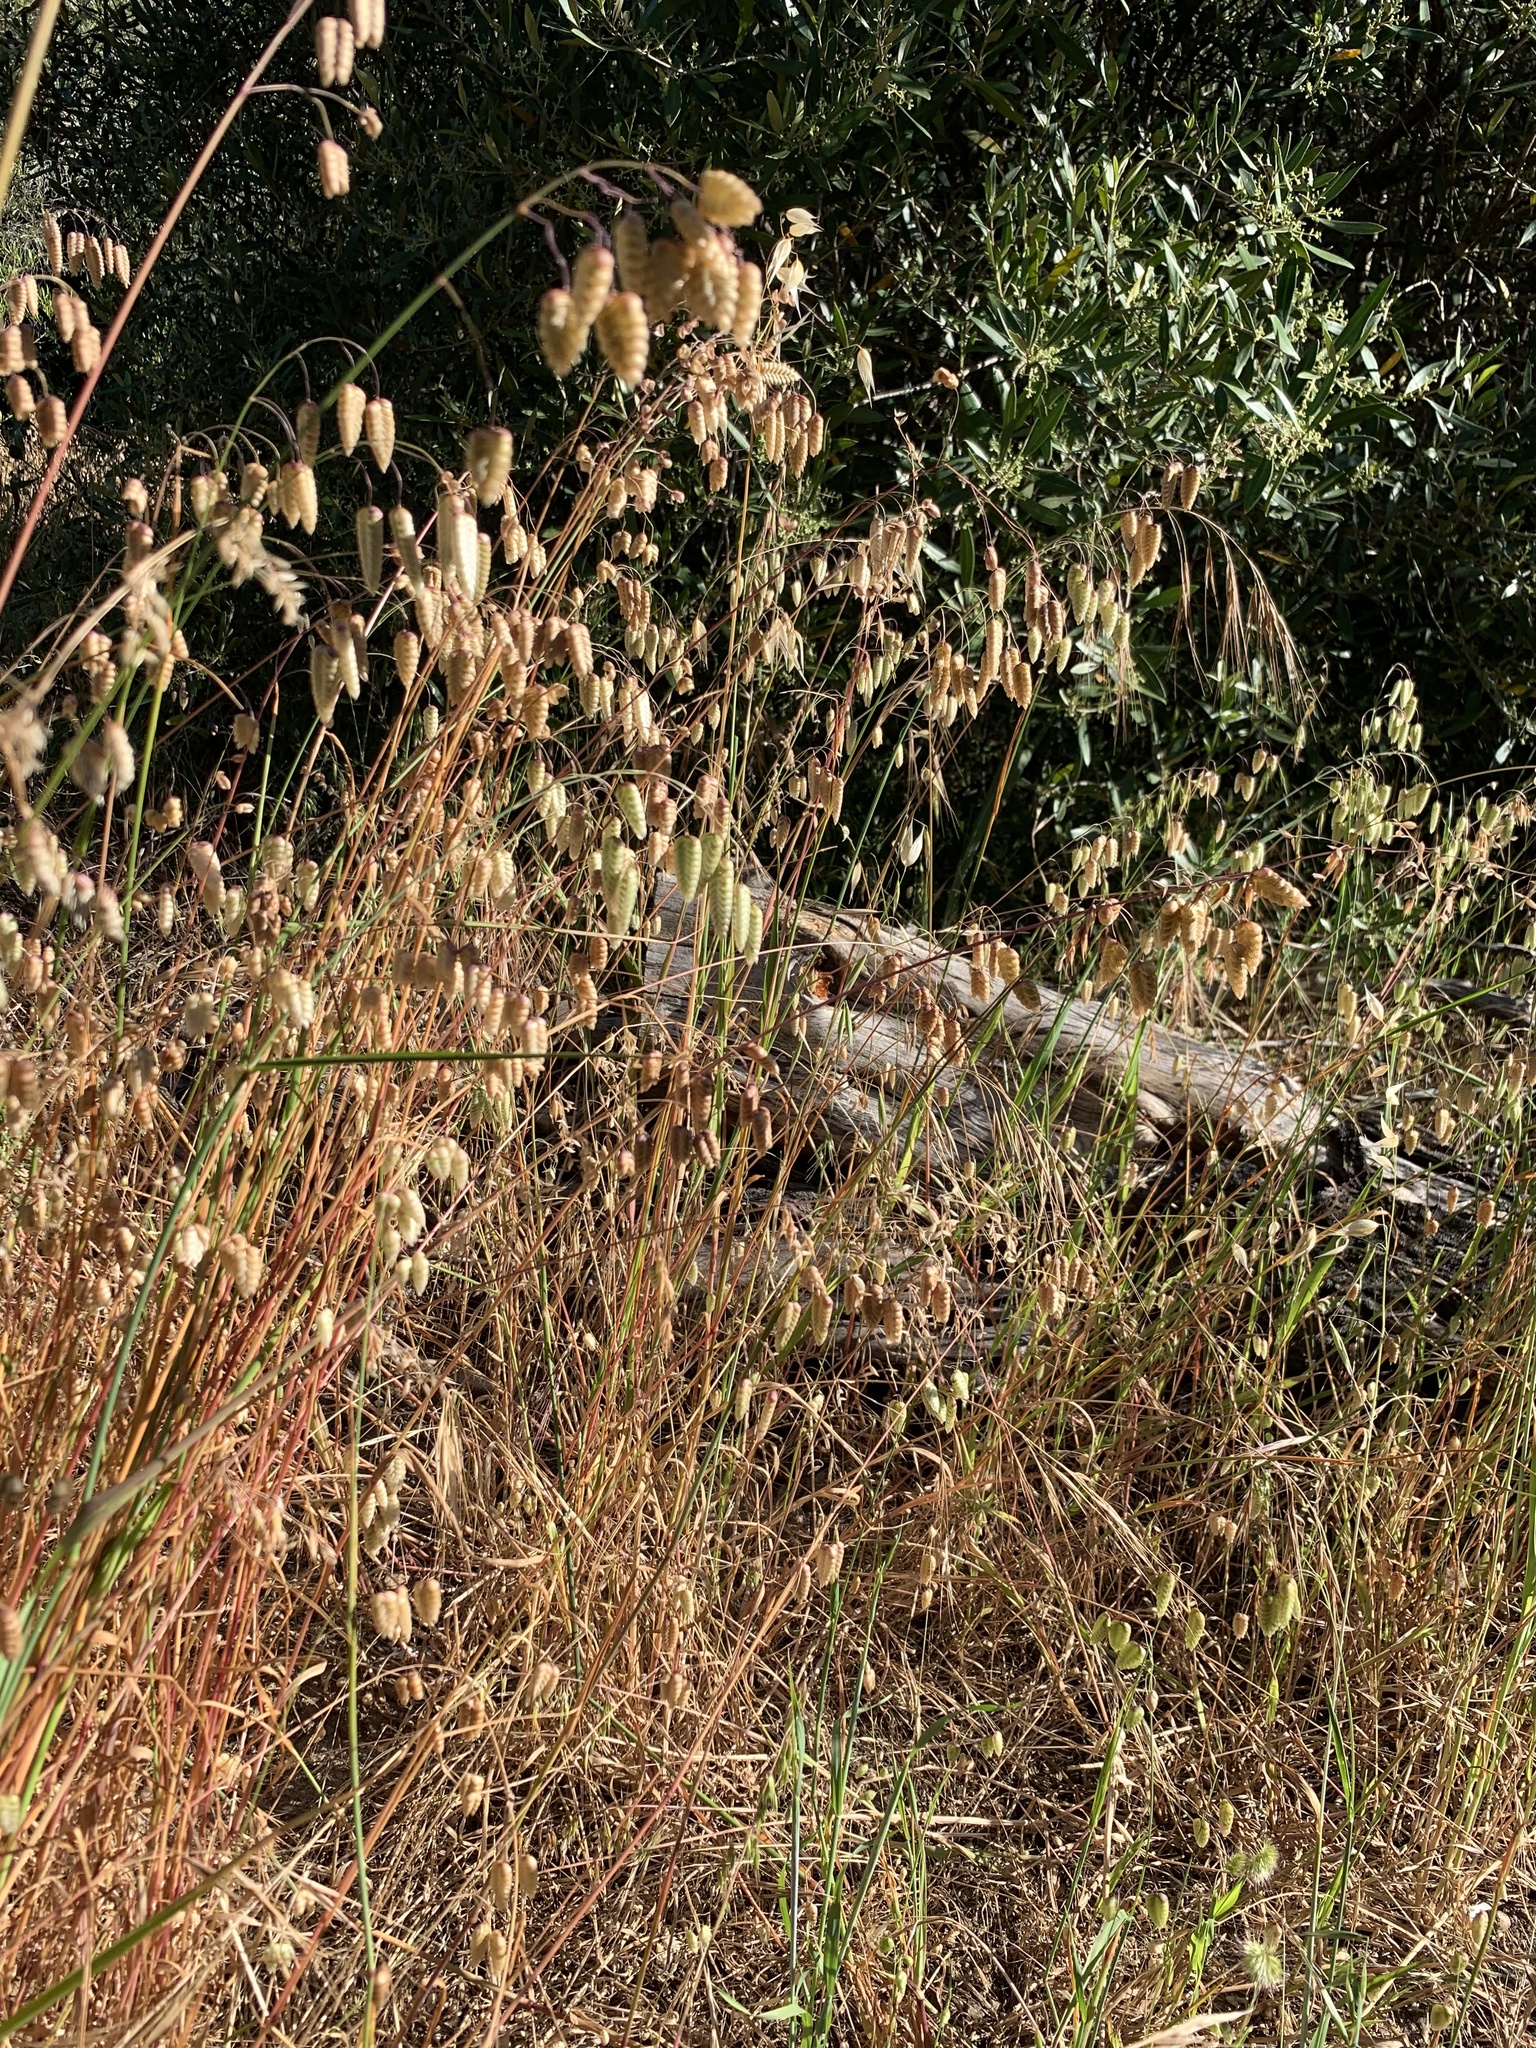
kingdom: Plantae
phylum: Tracheophyta
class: Liliopsida
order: Poales
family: Poaceae
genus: Briza
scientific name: Briza maxima
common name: Big quakinggrass
